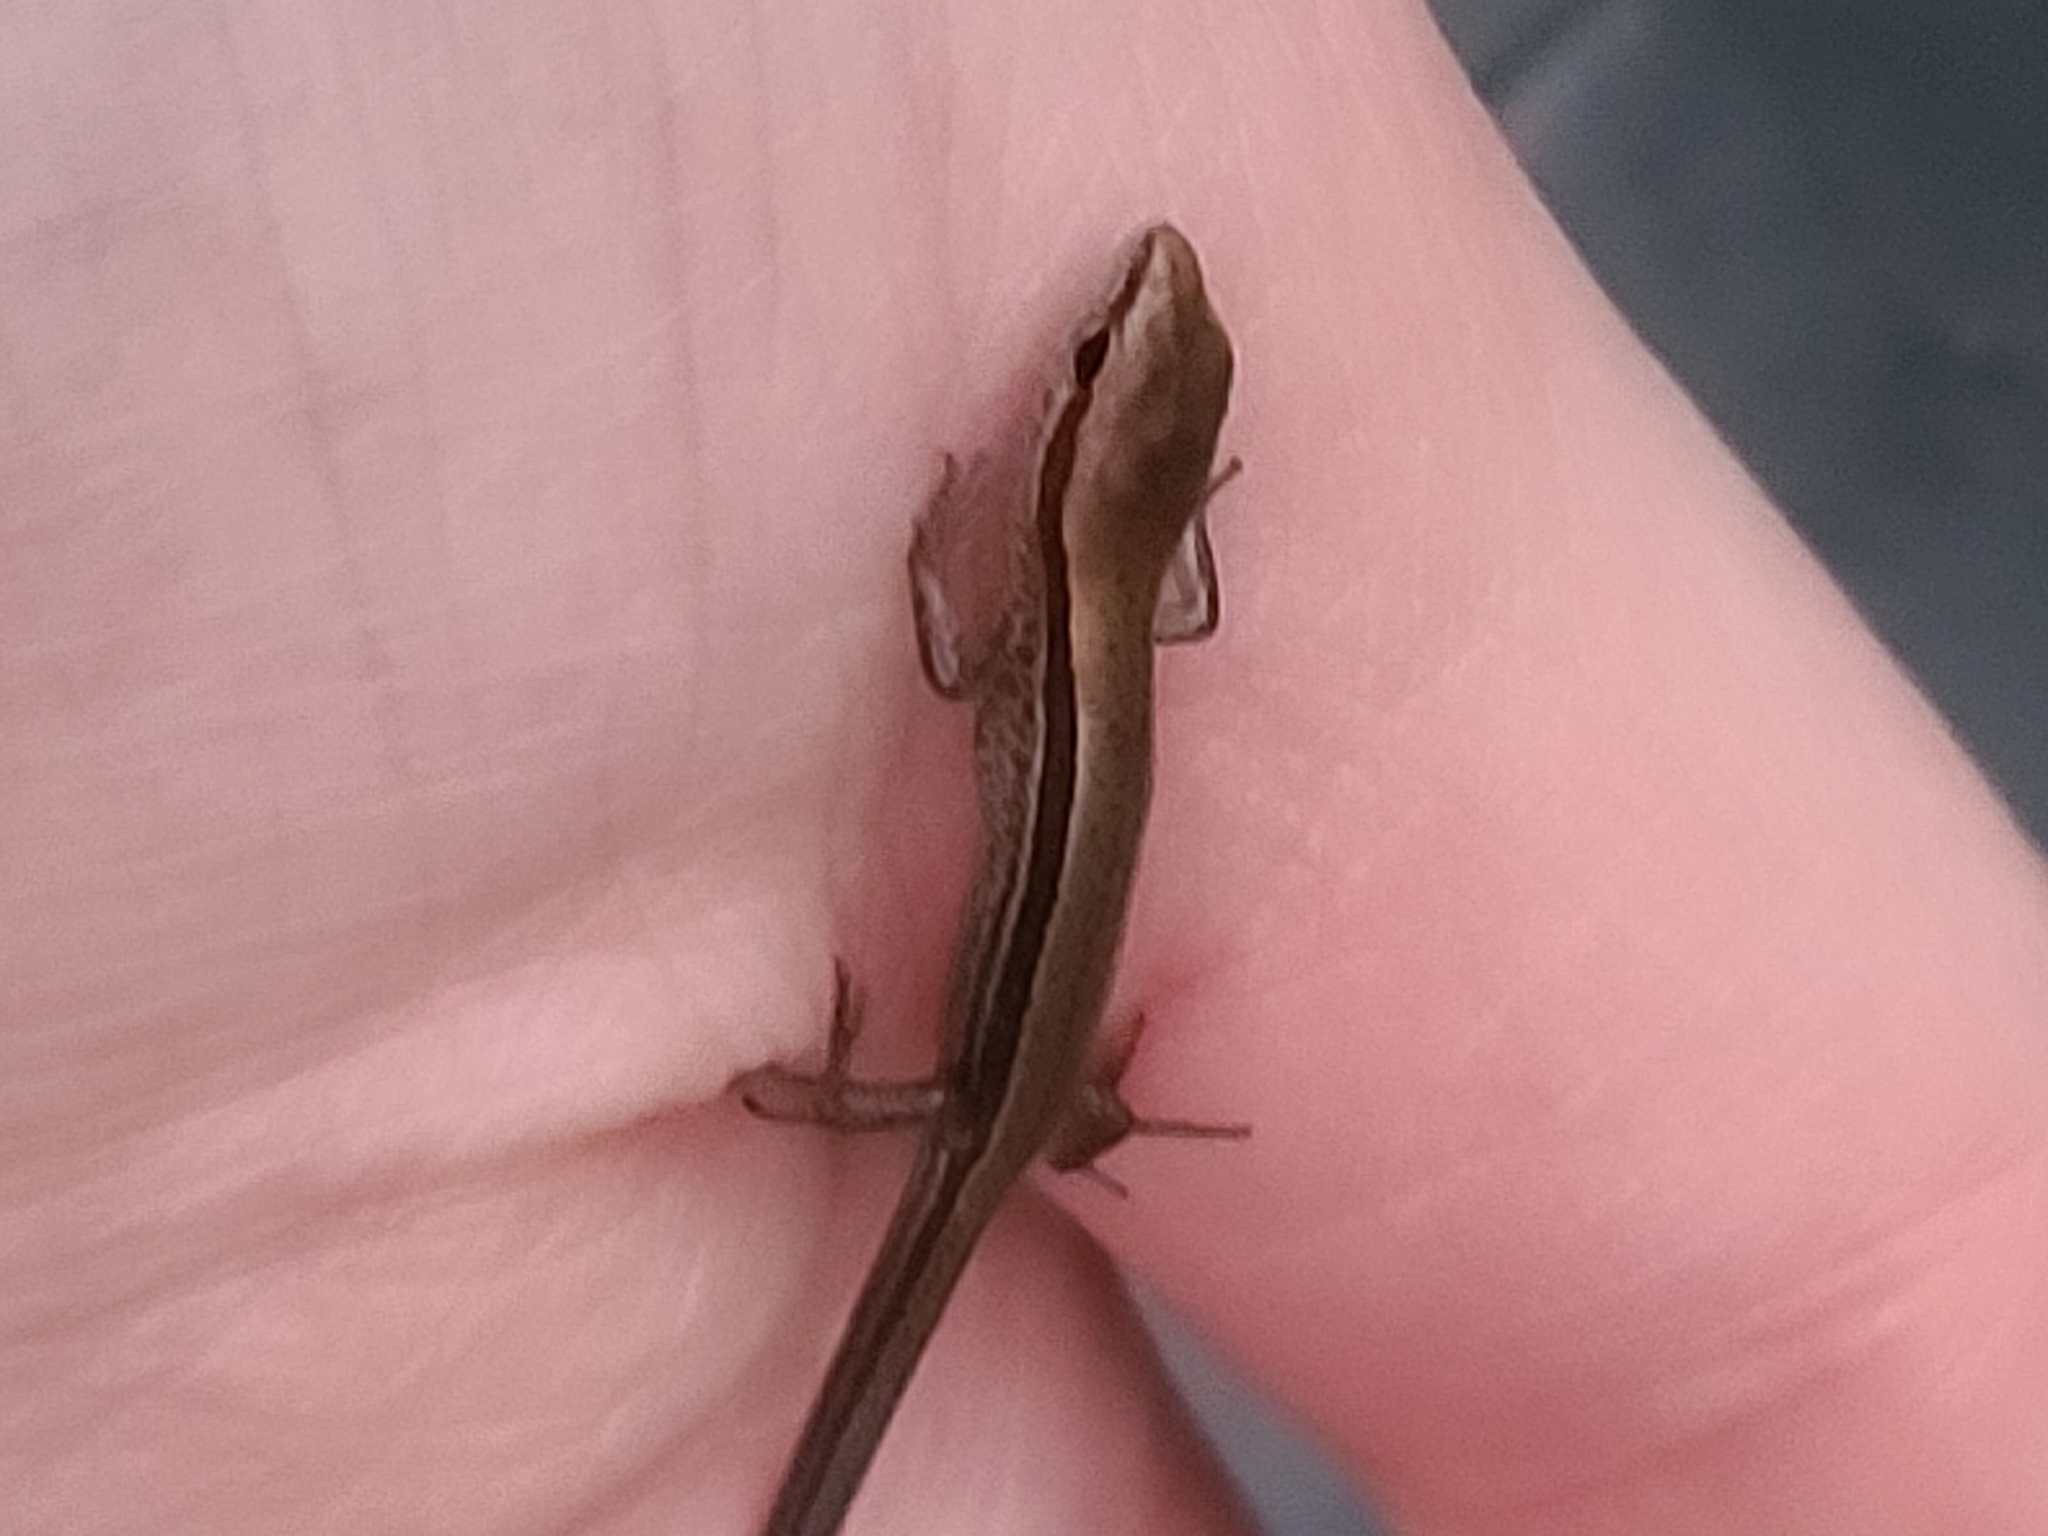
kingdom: Animalia
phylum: Chordata
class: Squamata
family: Scincidae
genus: Scincella
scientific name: Scincella lateralis
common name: Ground skink
